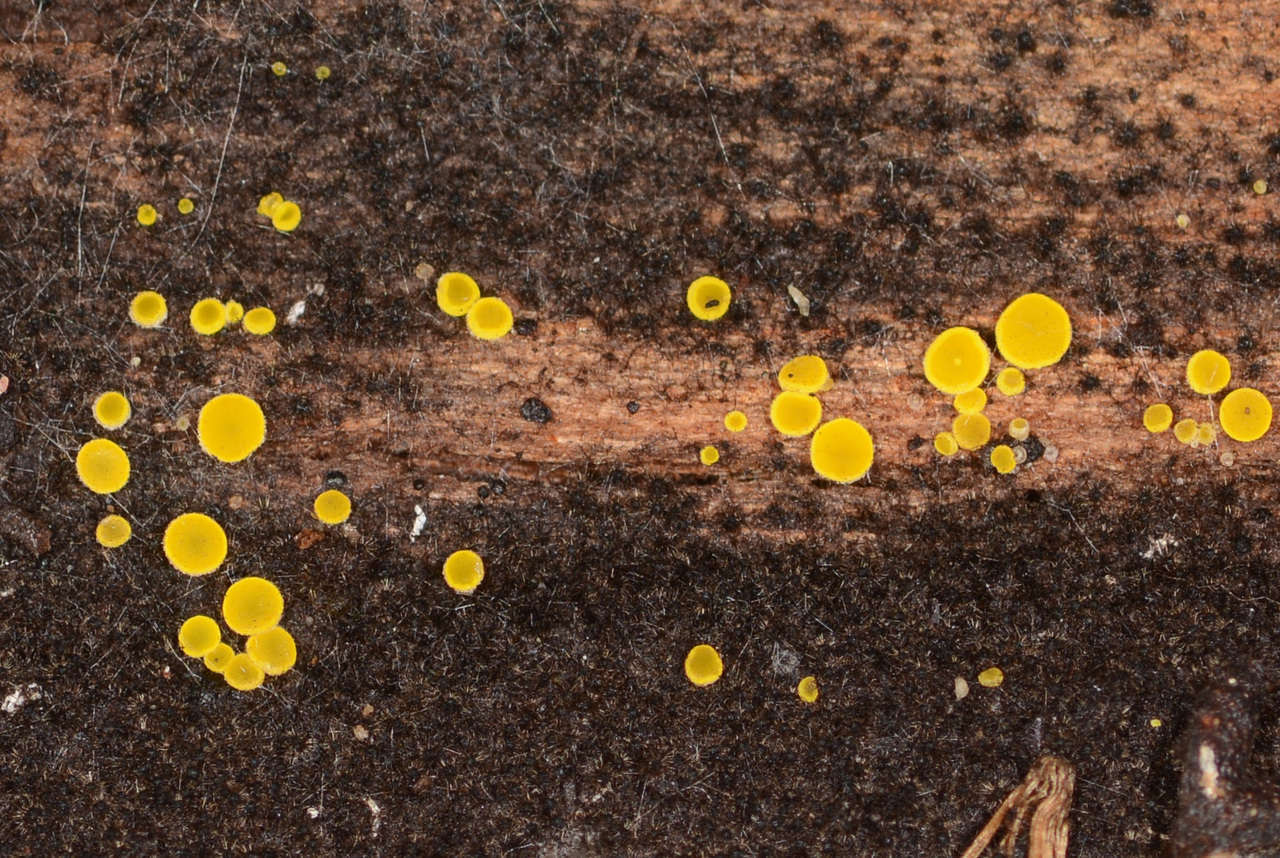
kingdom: Fungi
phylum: Ascomycota
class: Leotiomycetes
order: Helotiales
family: Pezizellaceae
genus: Calycina
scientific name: Calycina claroflava
